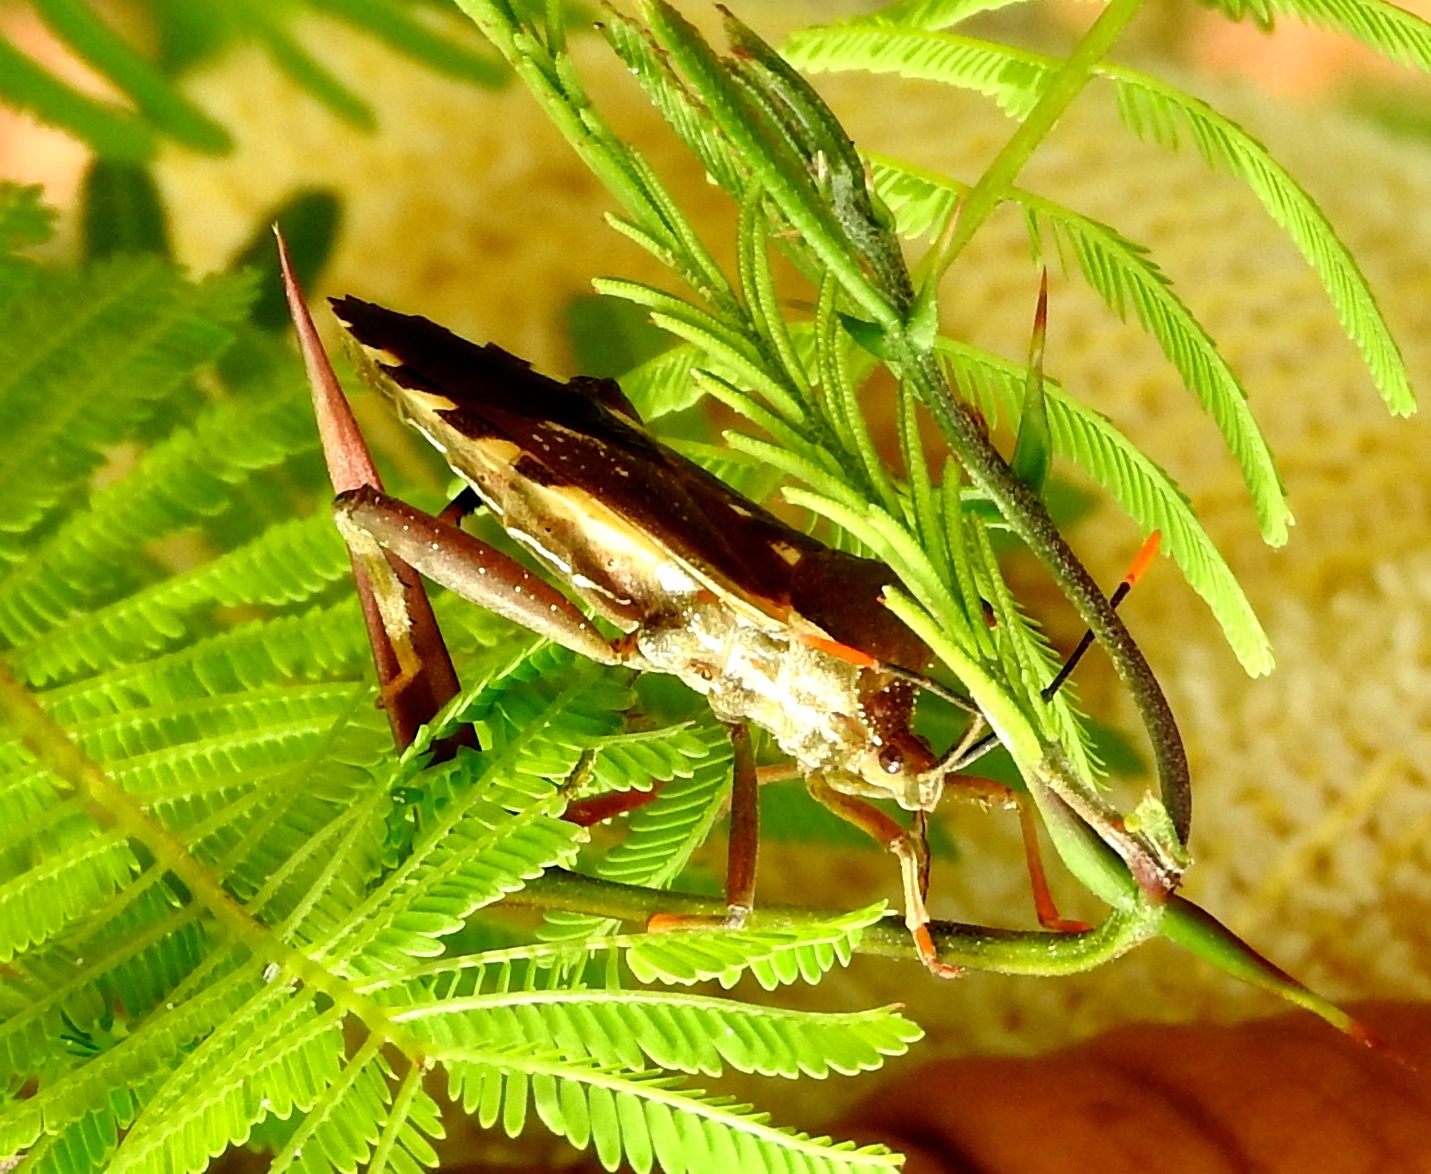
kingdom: Animalia
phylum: Arthropoda
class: Insecta
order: Hemiptera
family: Coreidae
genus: Mozena
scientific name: Mozena
